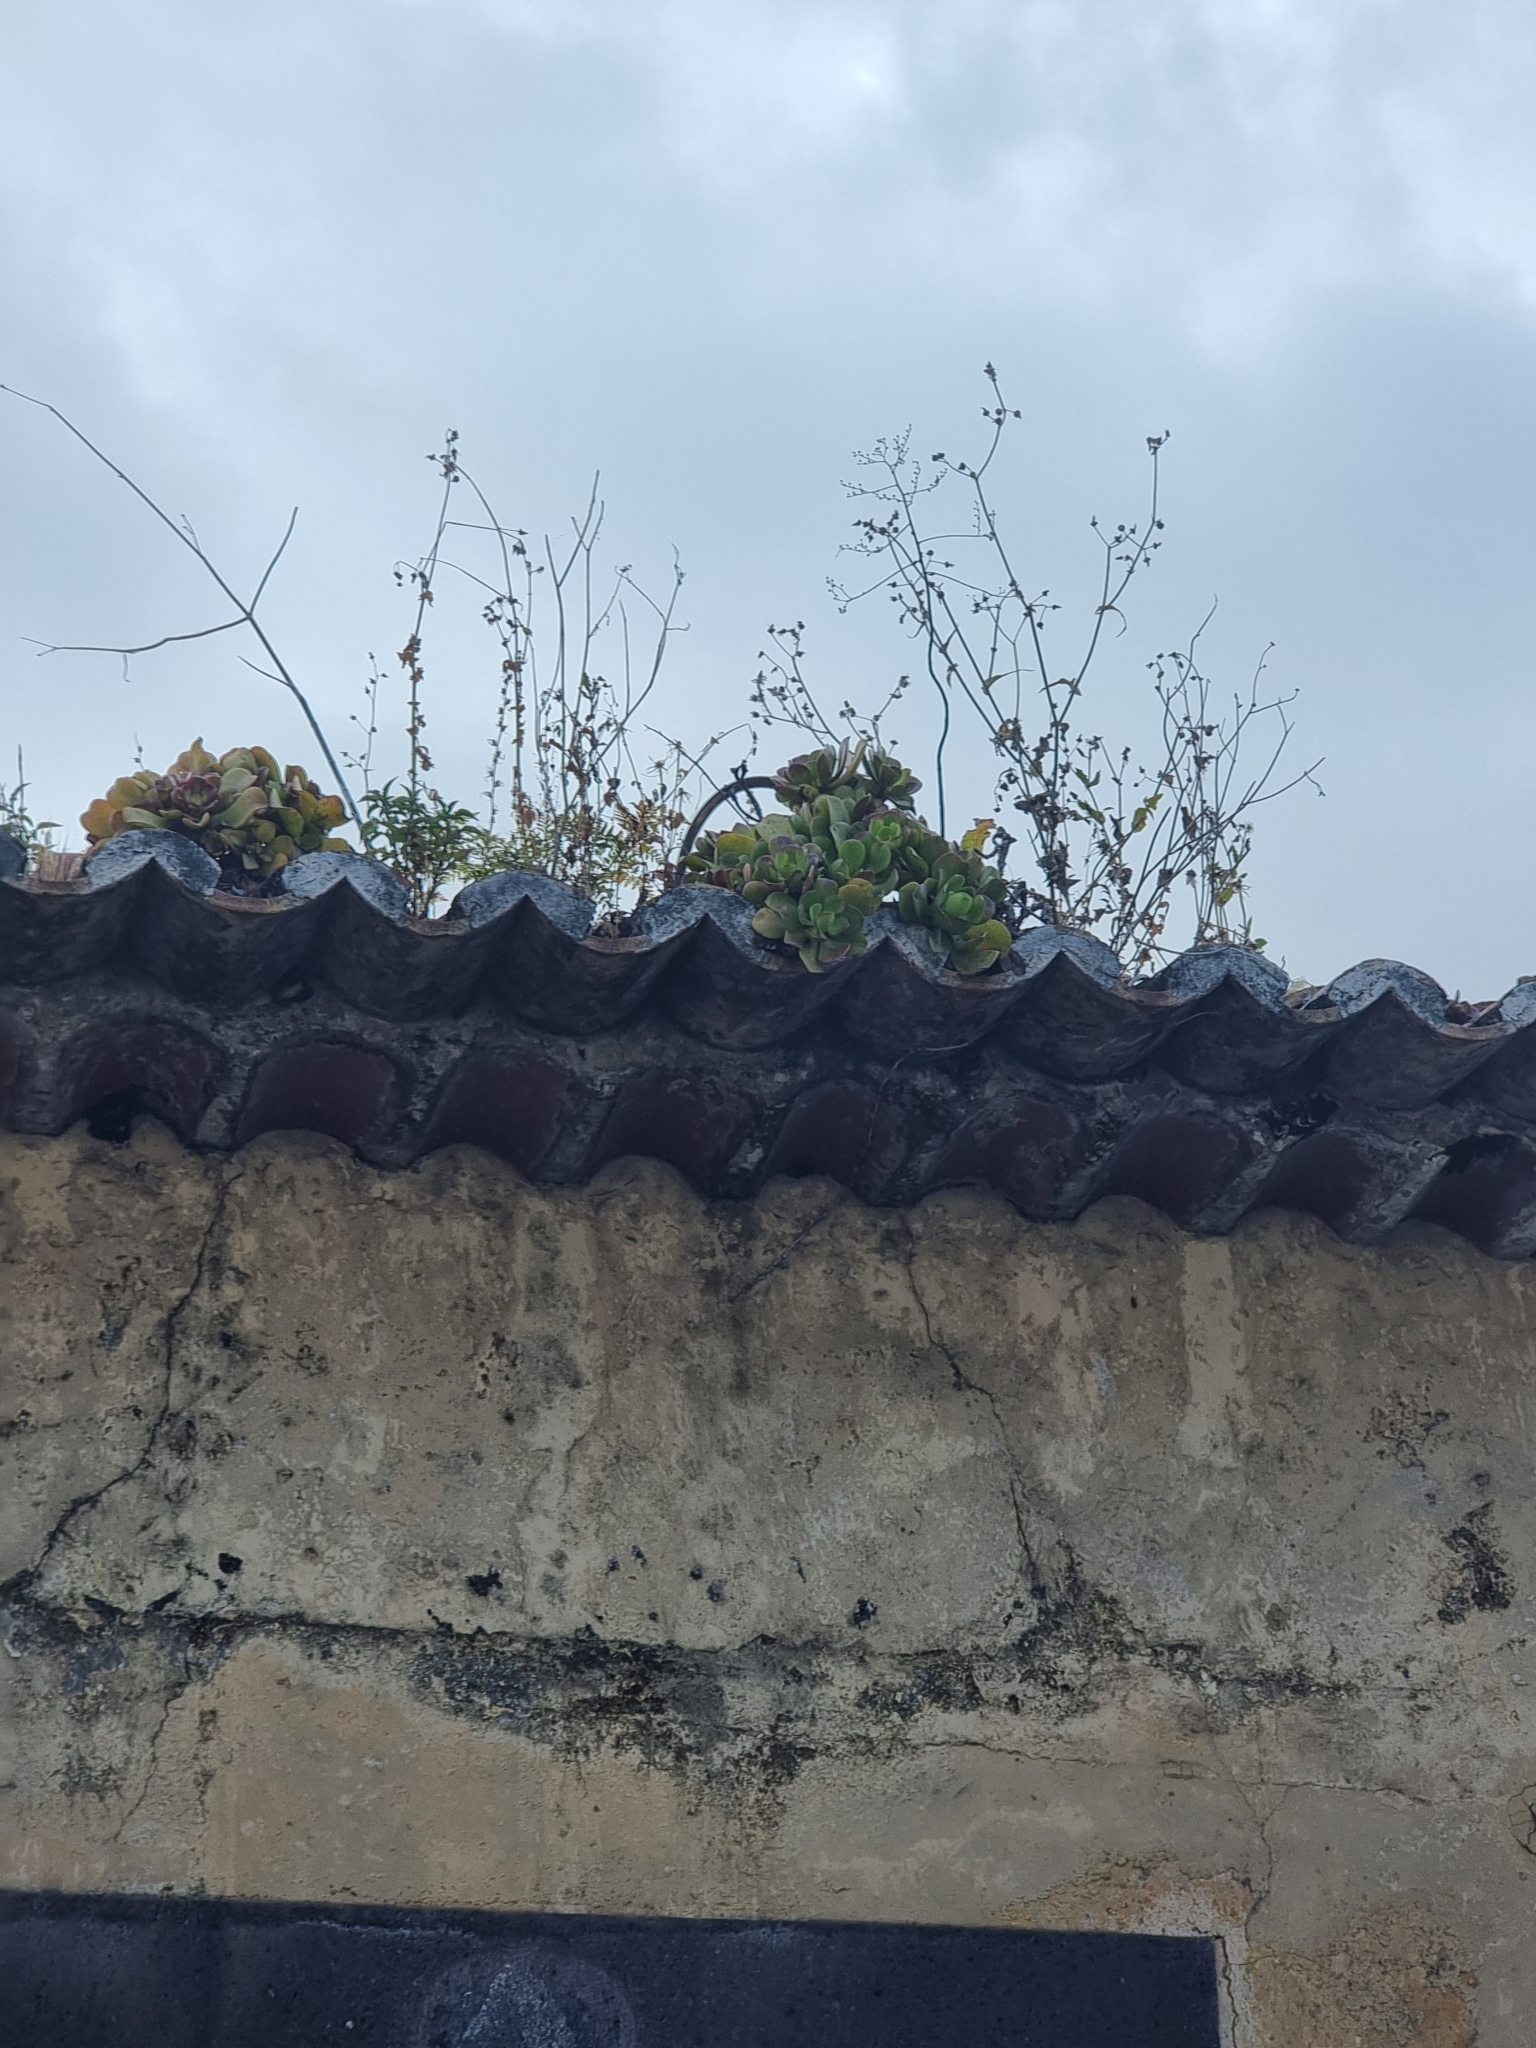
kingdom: Plantae
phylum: Tracheophyta
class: Magnoliopsida
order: Saxifragales
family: Crassulaceae
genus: Aeonium
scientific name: Aeonium glutinosum
